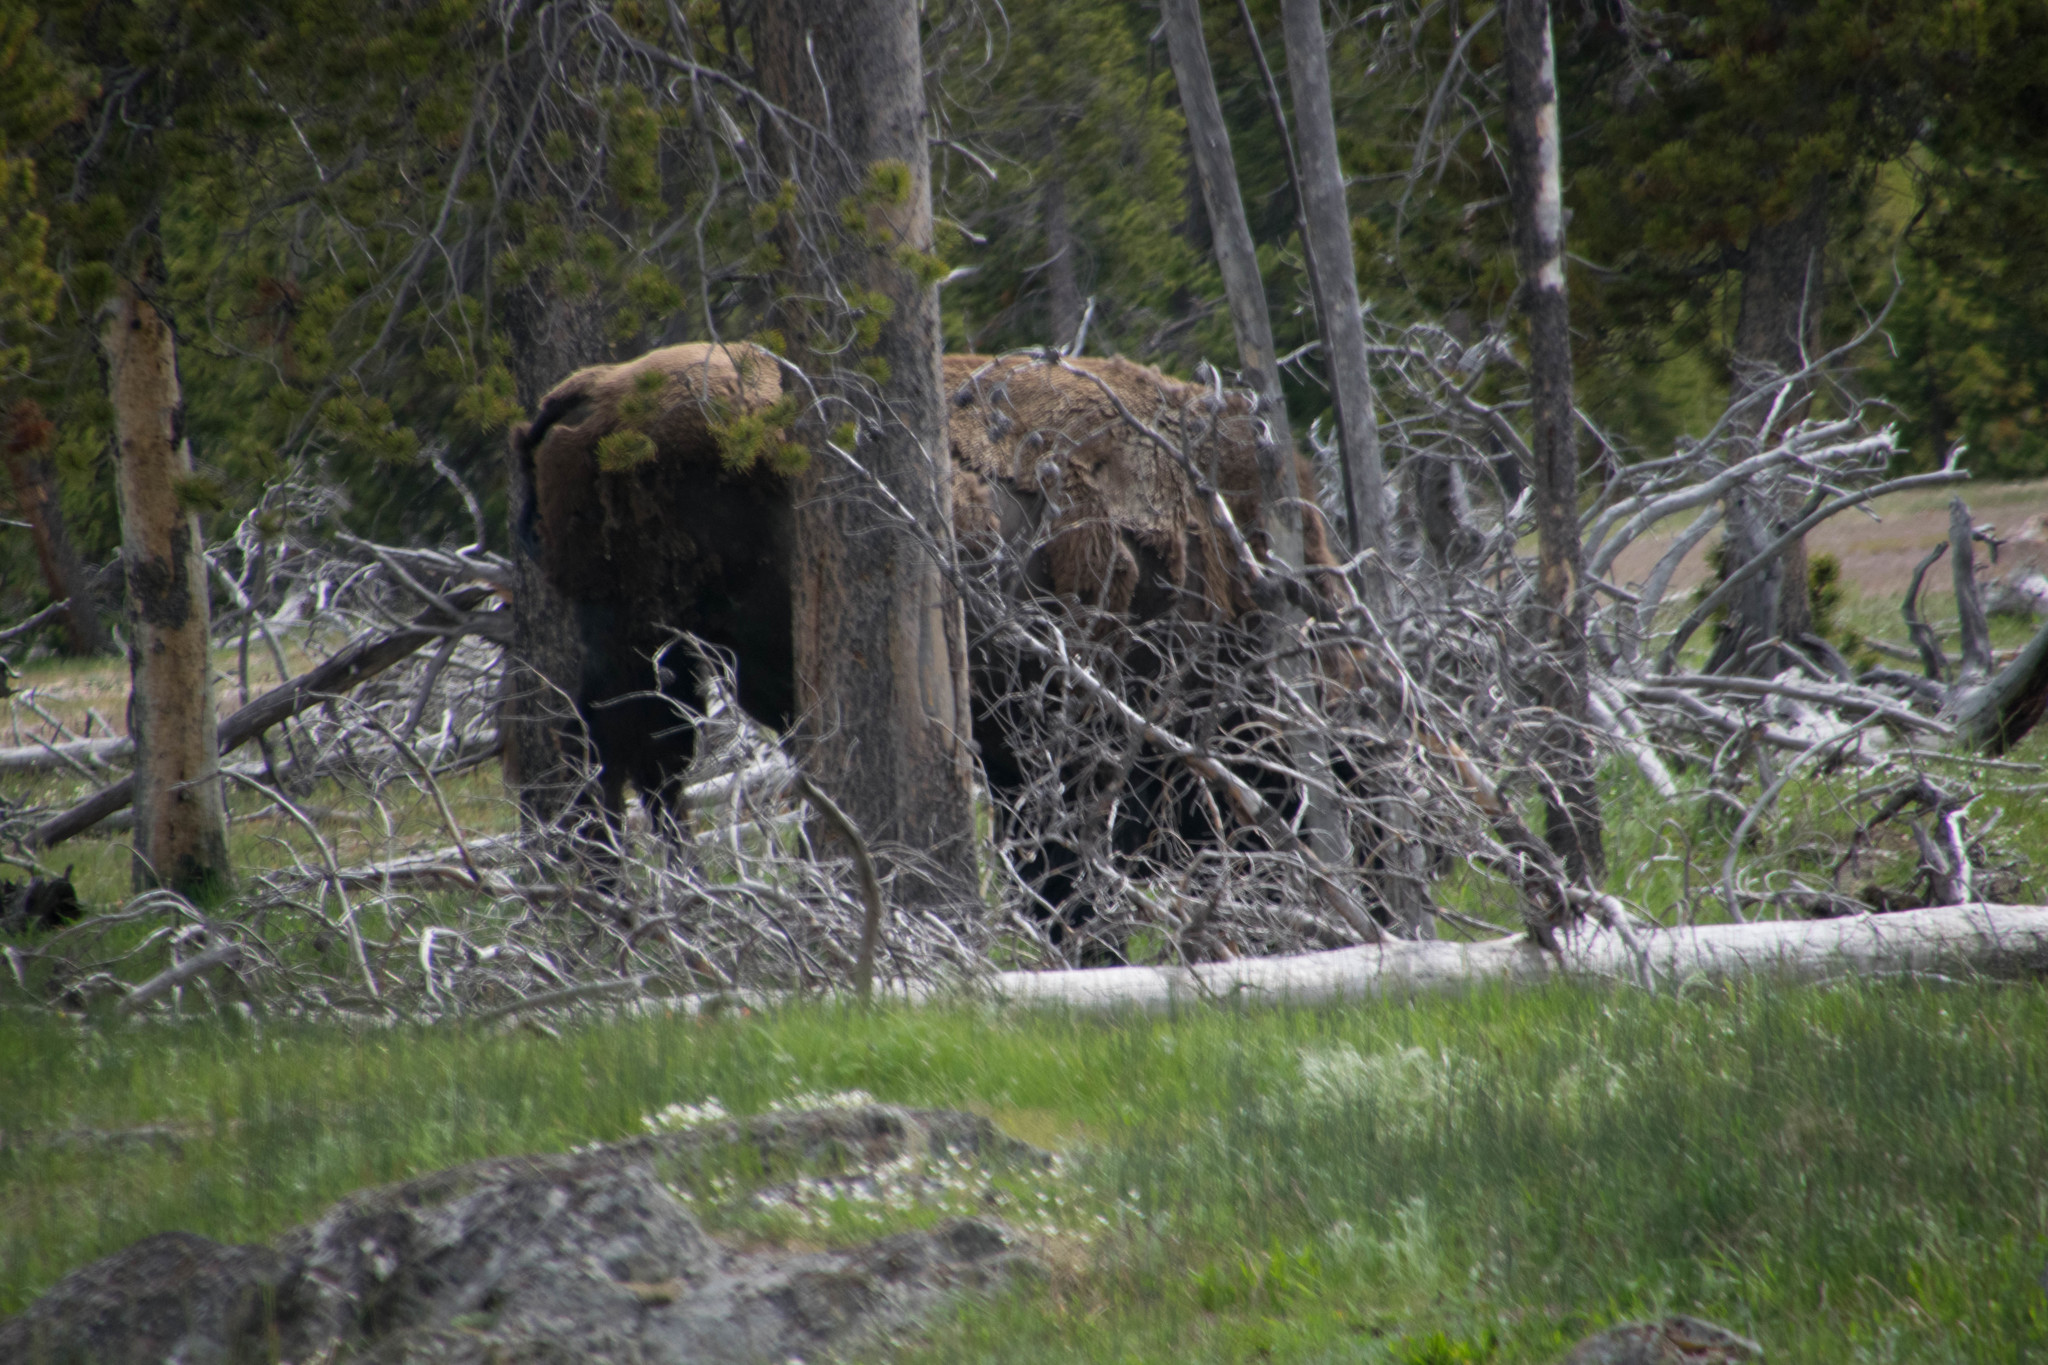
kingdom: Animalia
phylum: Chordata
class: Mammalia
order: Artiodactyla
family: Bovidae
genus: Bison
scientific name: Bison bison
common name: American bison
